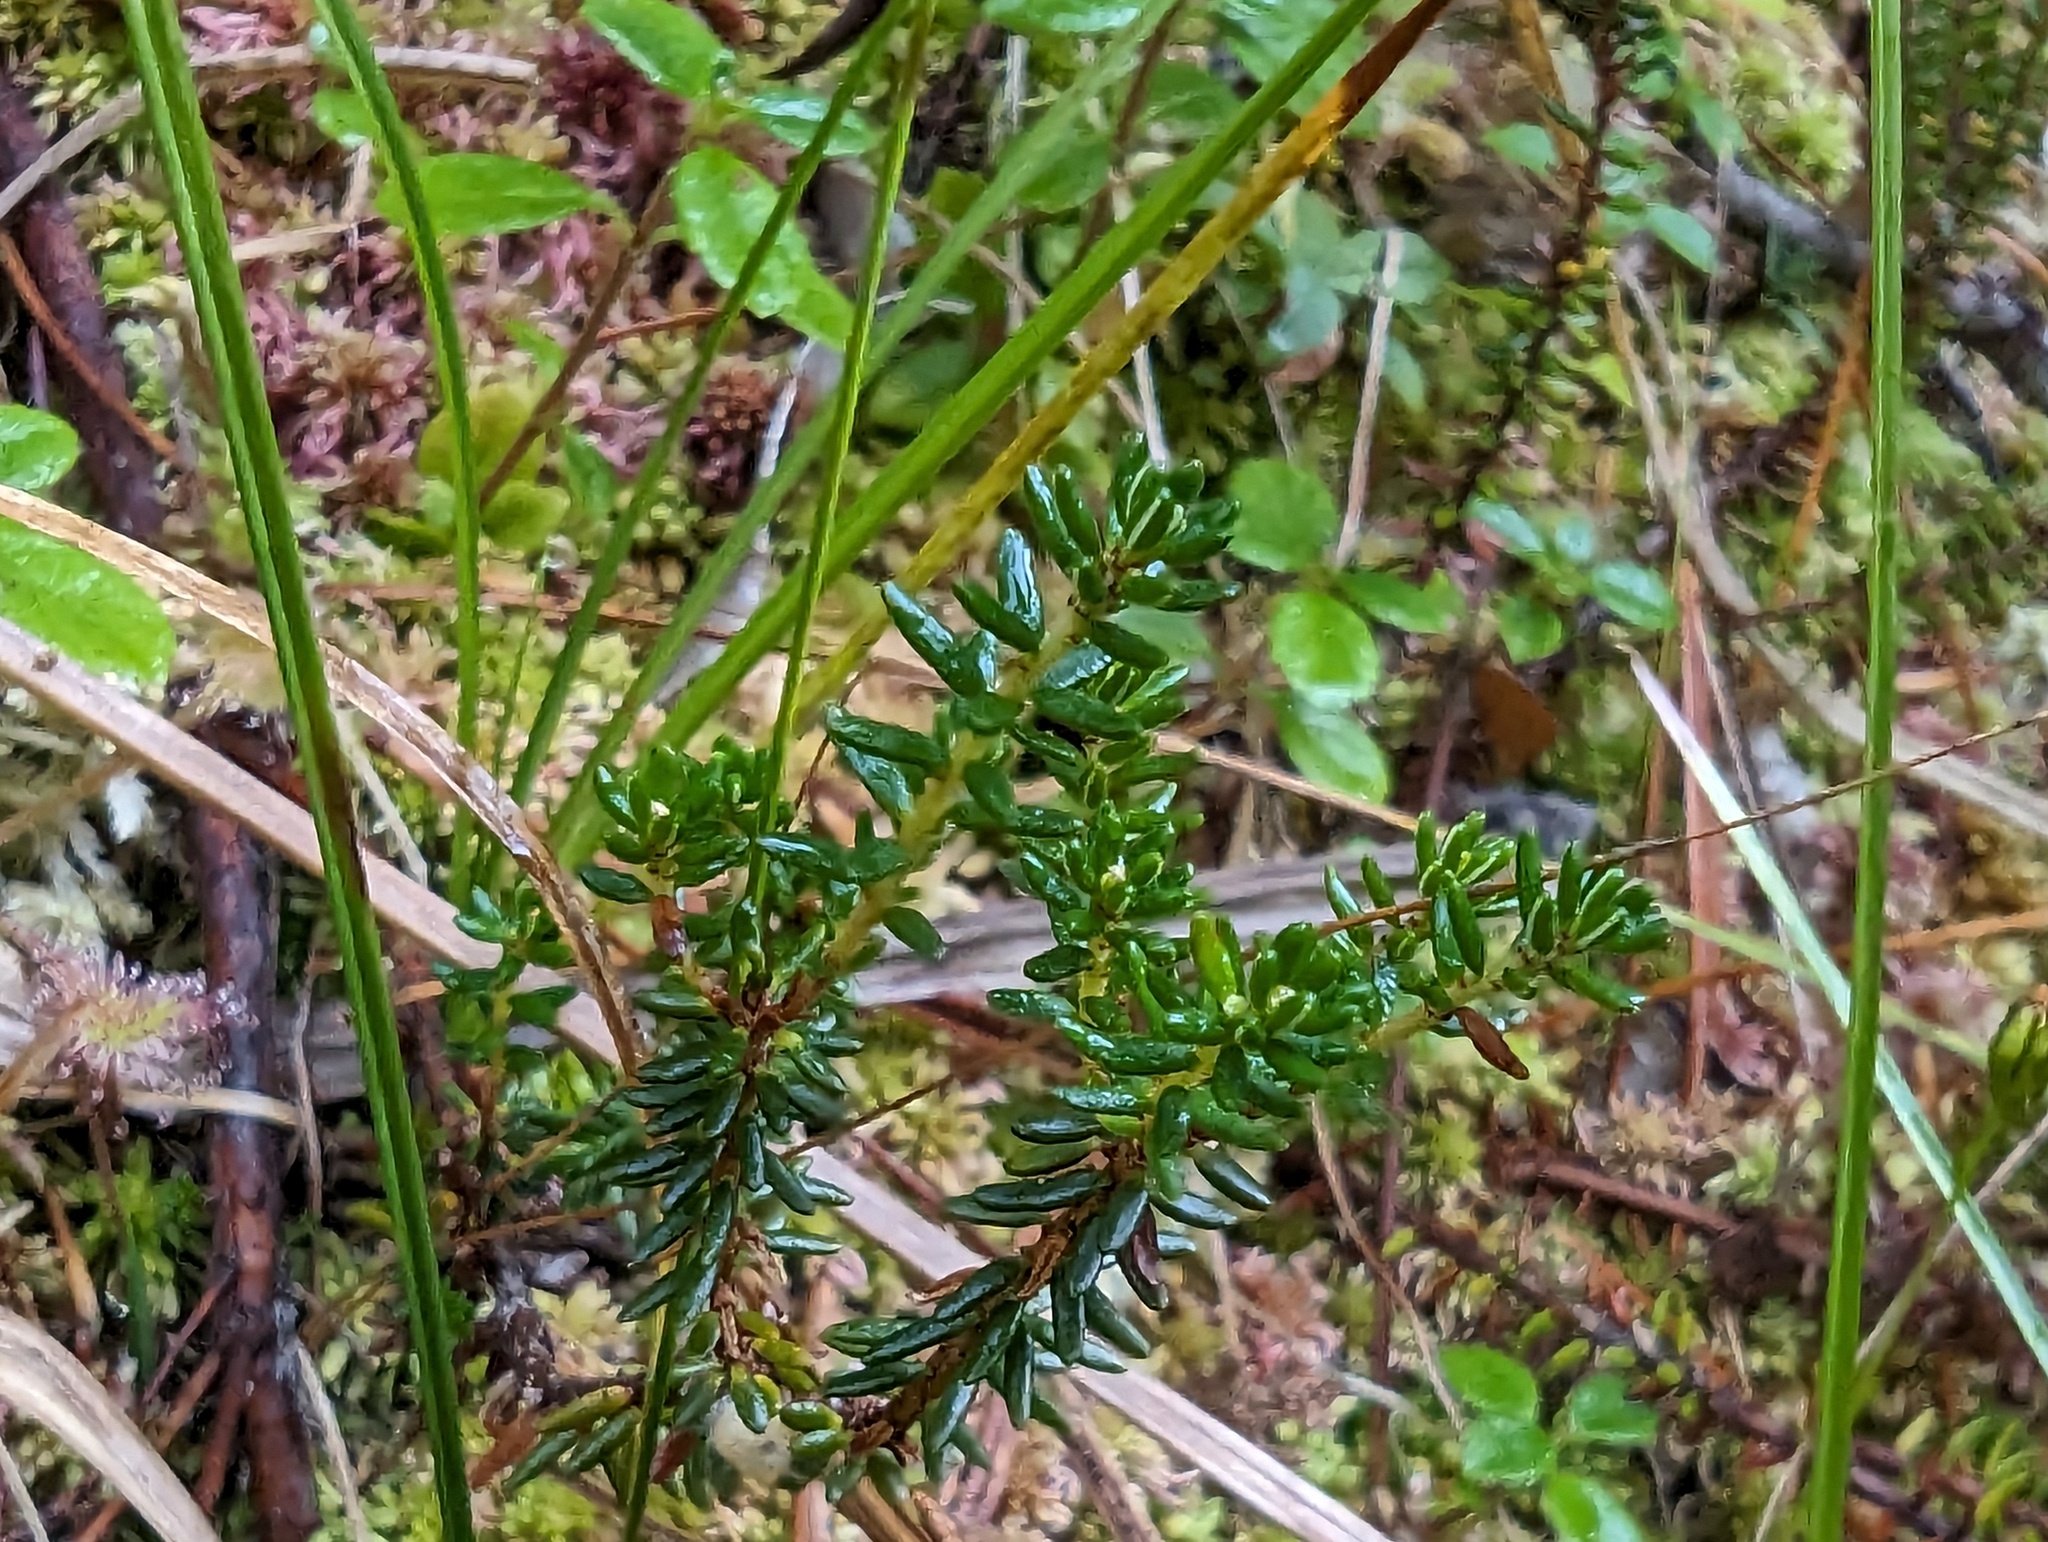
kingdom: Plantae
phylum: Tracheophyta
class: Magnoliopsida
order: Ericales
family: Ericaceae
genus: Empetrum
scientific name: Empetrum nigrum
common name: Black crowberry
